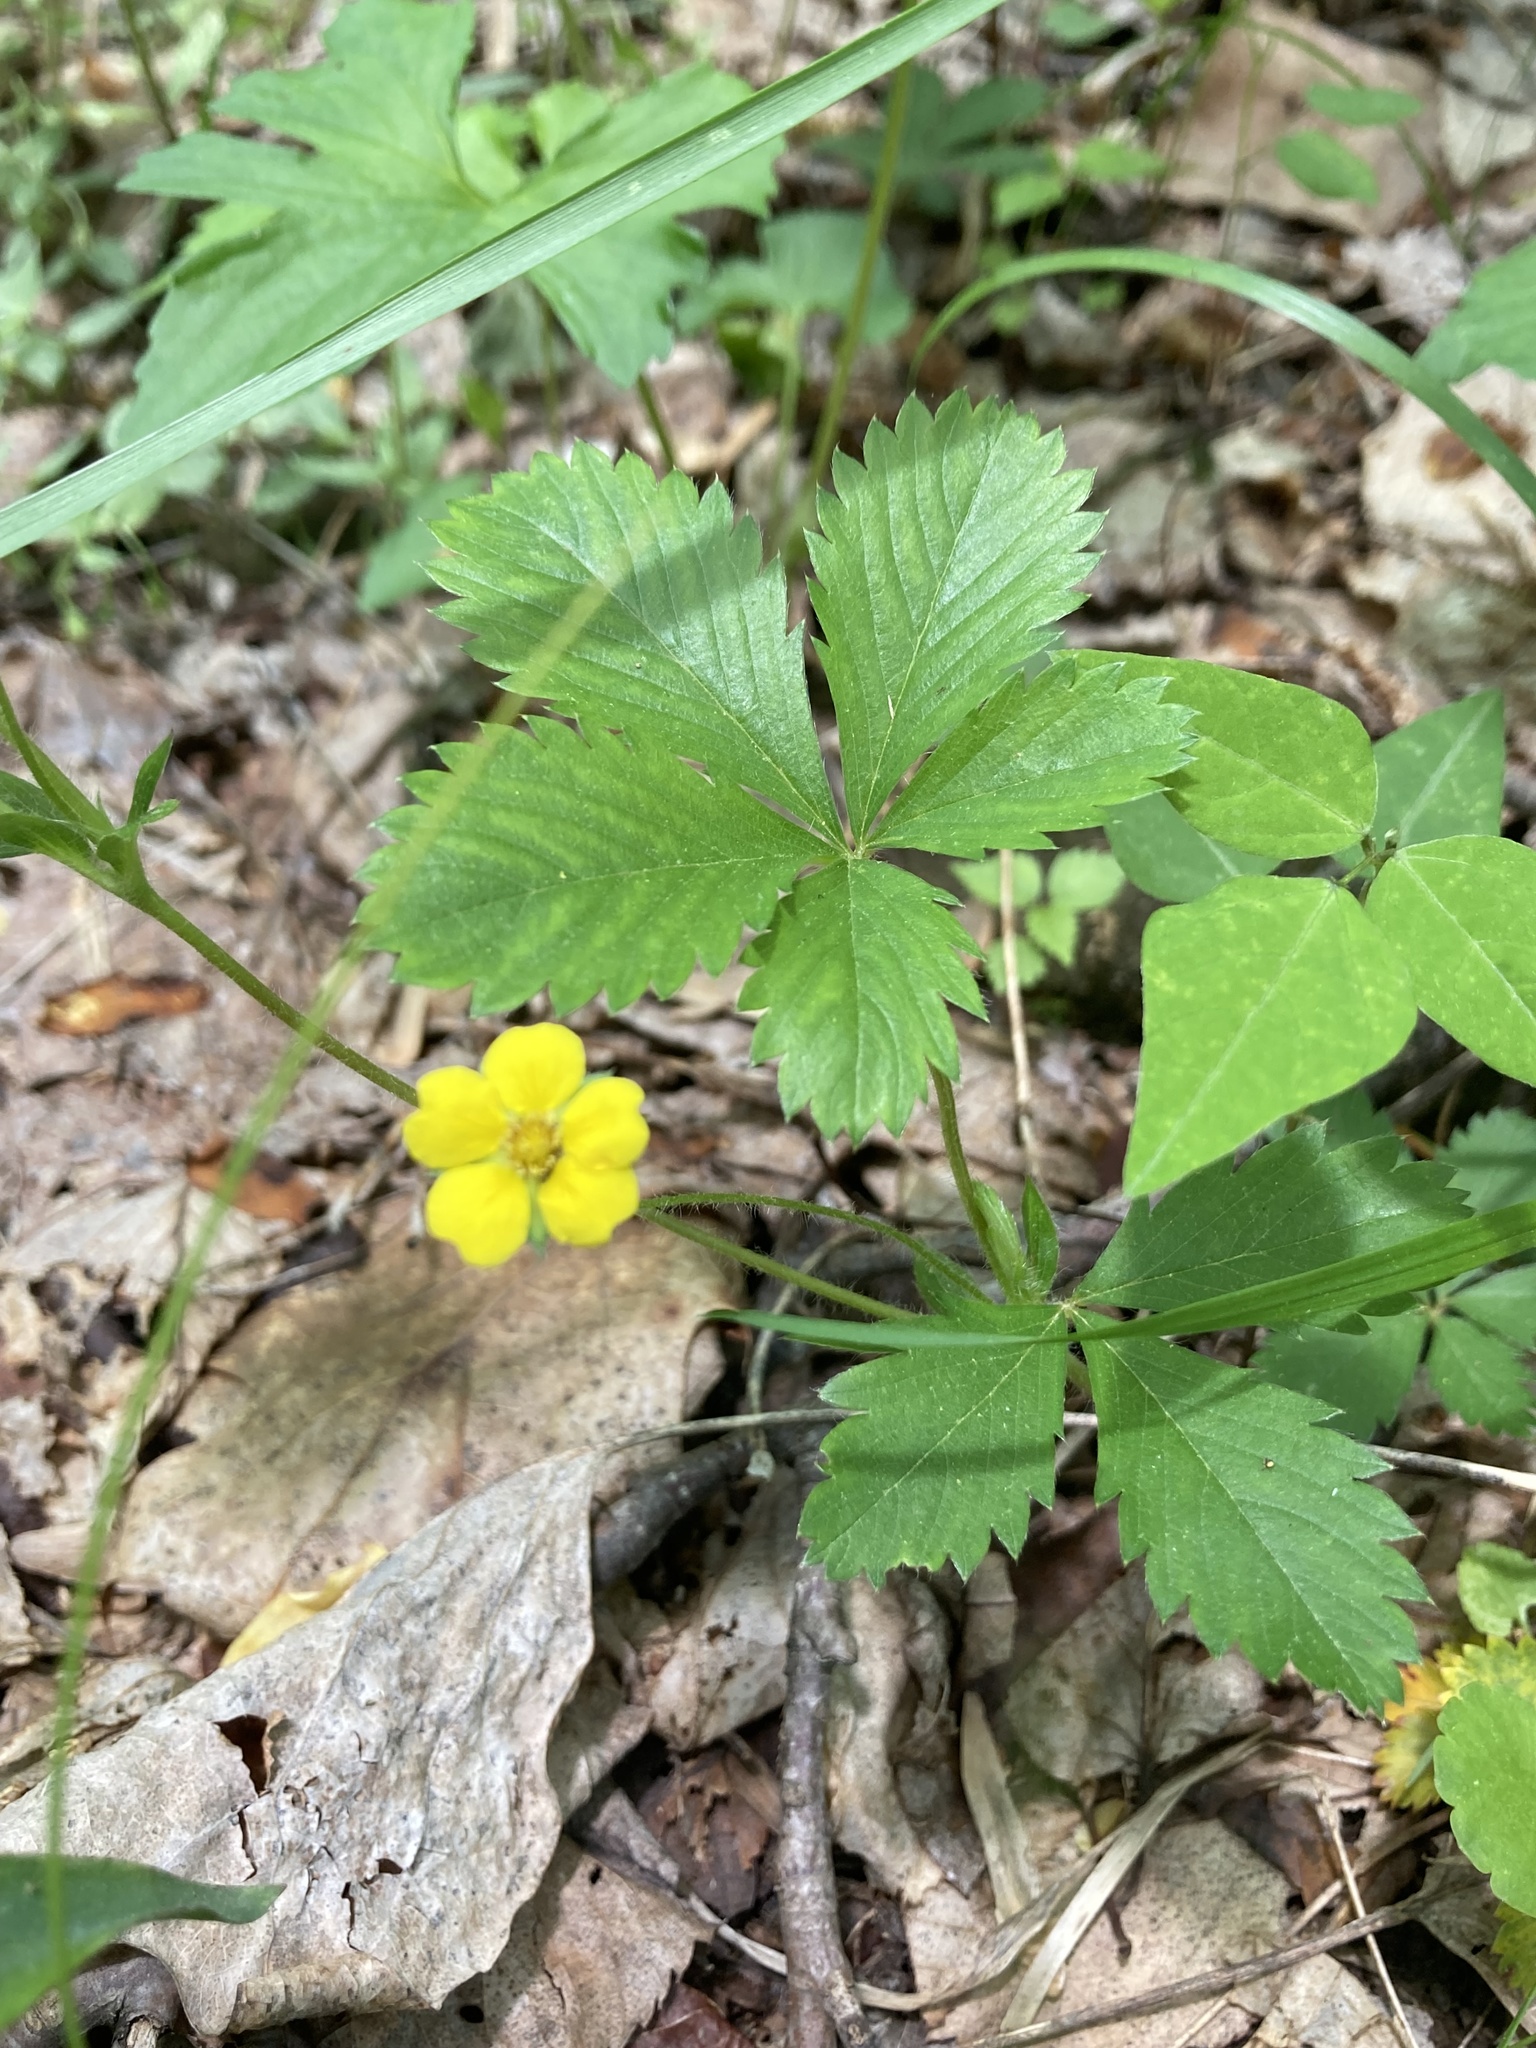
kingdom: Plantae
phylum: Tracheophyta
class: Magnoliopsida
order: Rosales
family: Rosaceae
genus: Potentilla
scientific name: Potentilla simplex
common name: Old field cinquefoil
